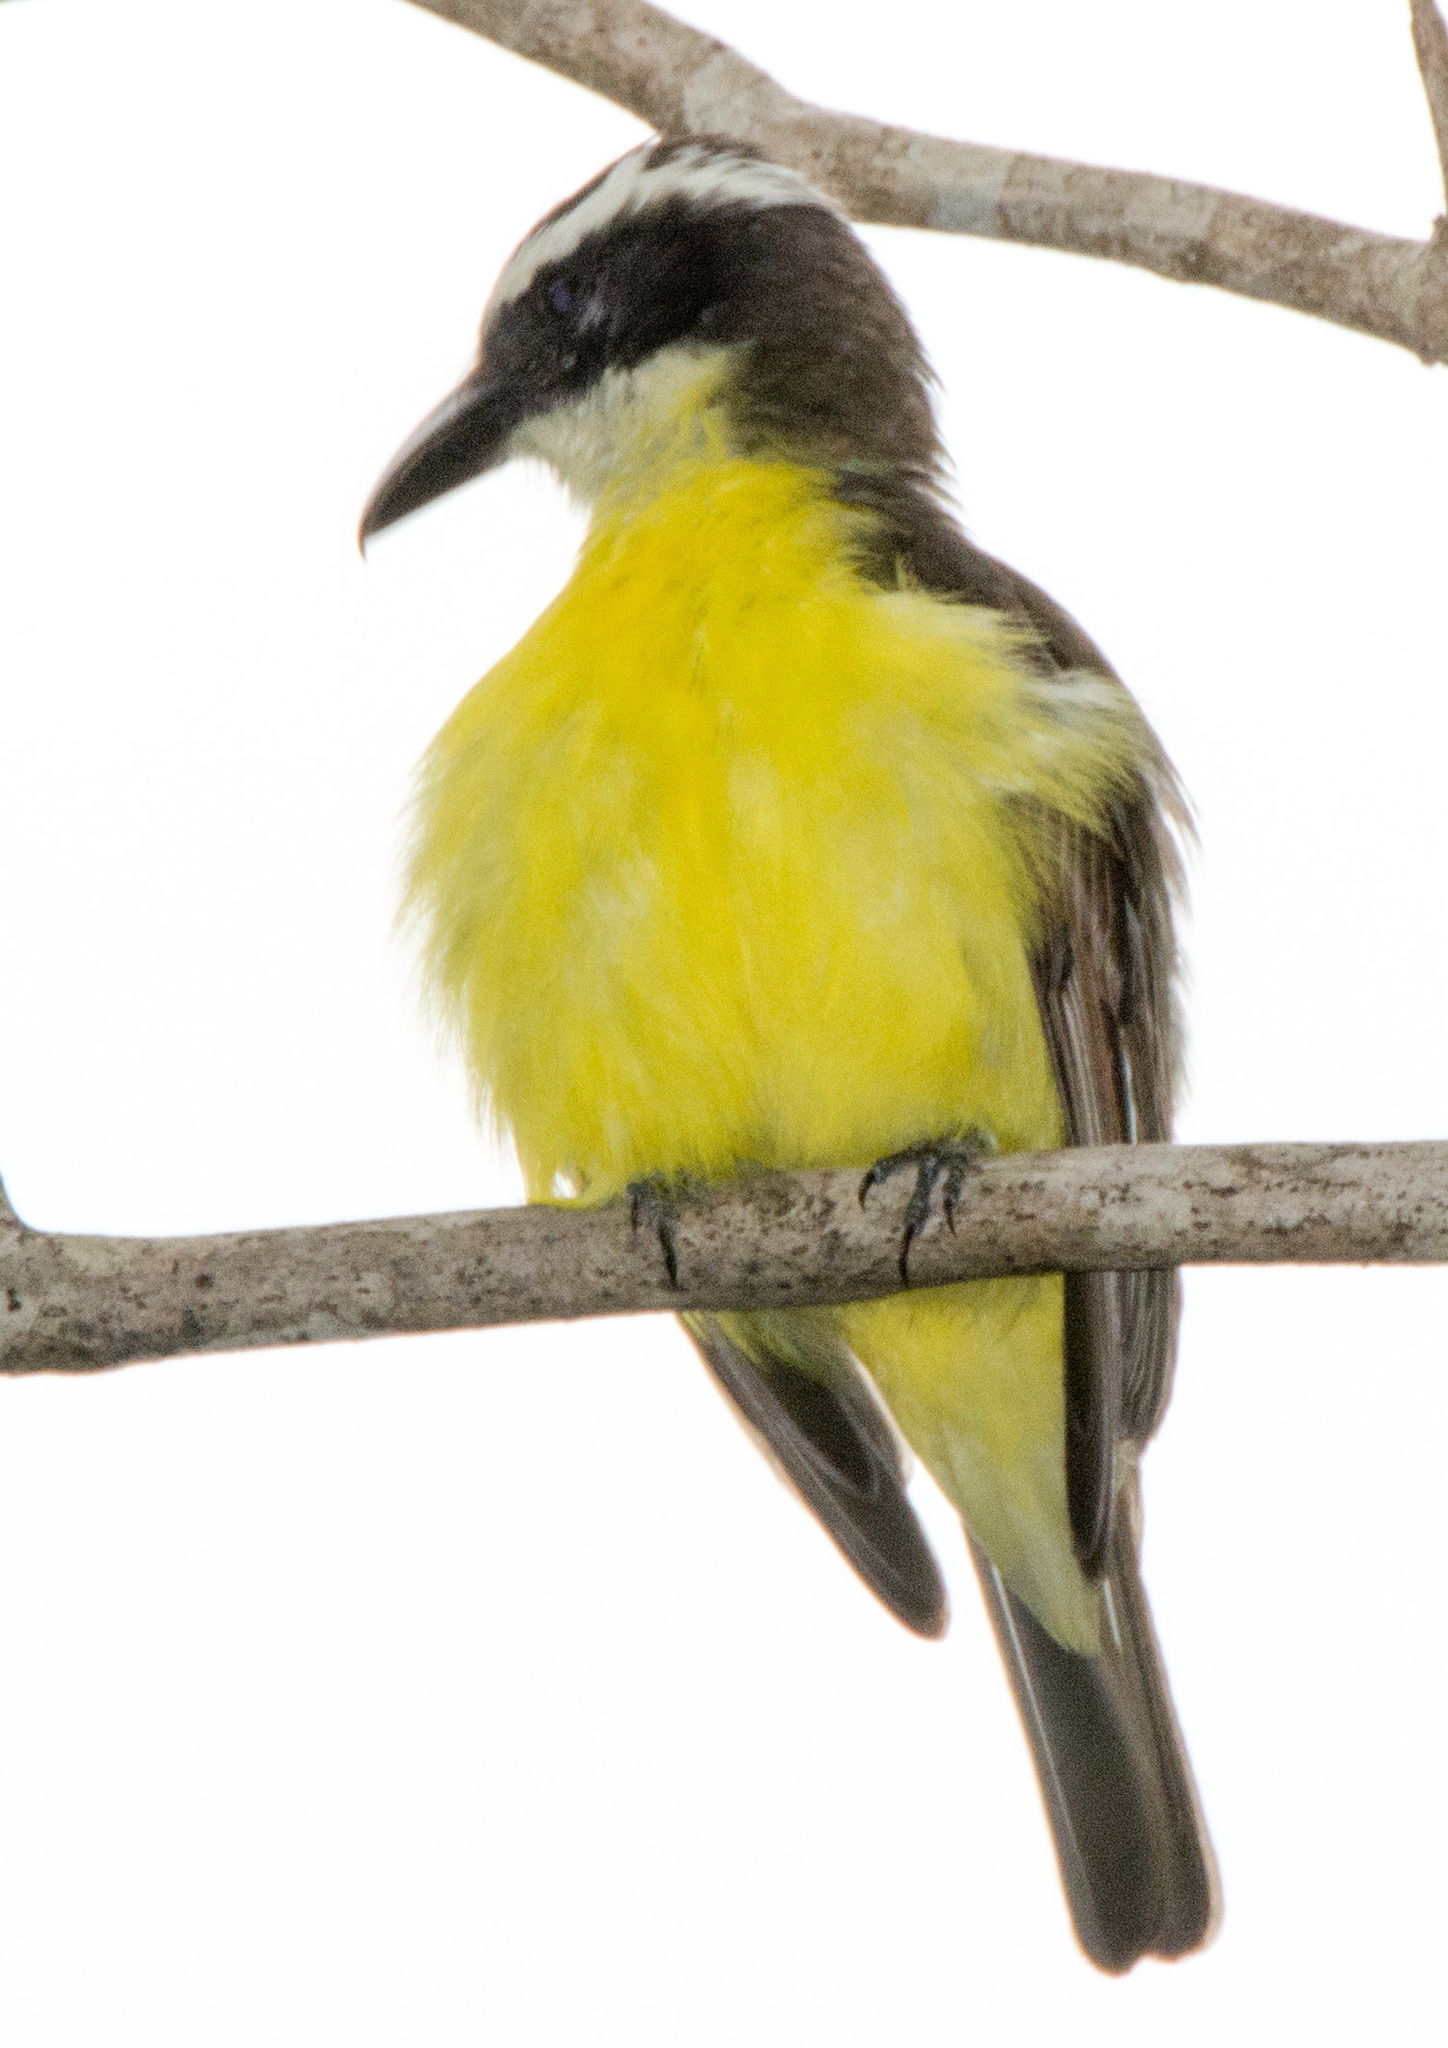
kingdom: Animalia
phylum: Chordata
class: Aves
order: Passeriformes
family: Tyrannidae
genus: Pitangus
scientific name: Pitangus sulphuratus
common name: Great kiskadee
